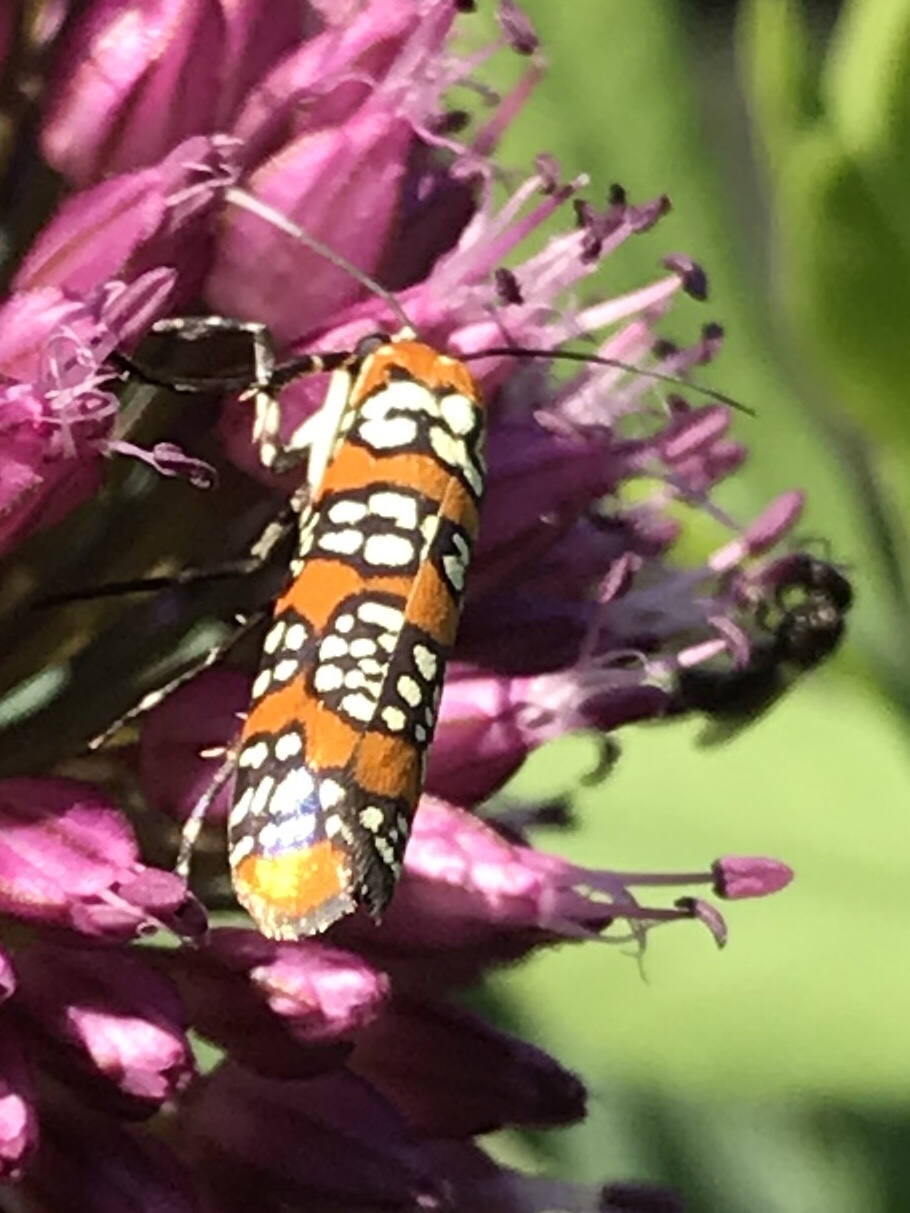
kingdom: Animalia
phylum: Arthropoda
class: Insecta
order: Lepidoptera
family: Attevidae
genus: Atteva
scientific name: Atteva punctella
